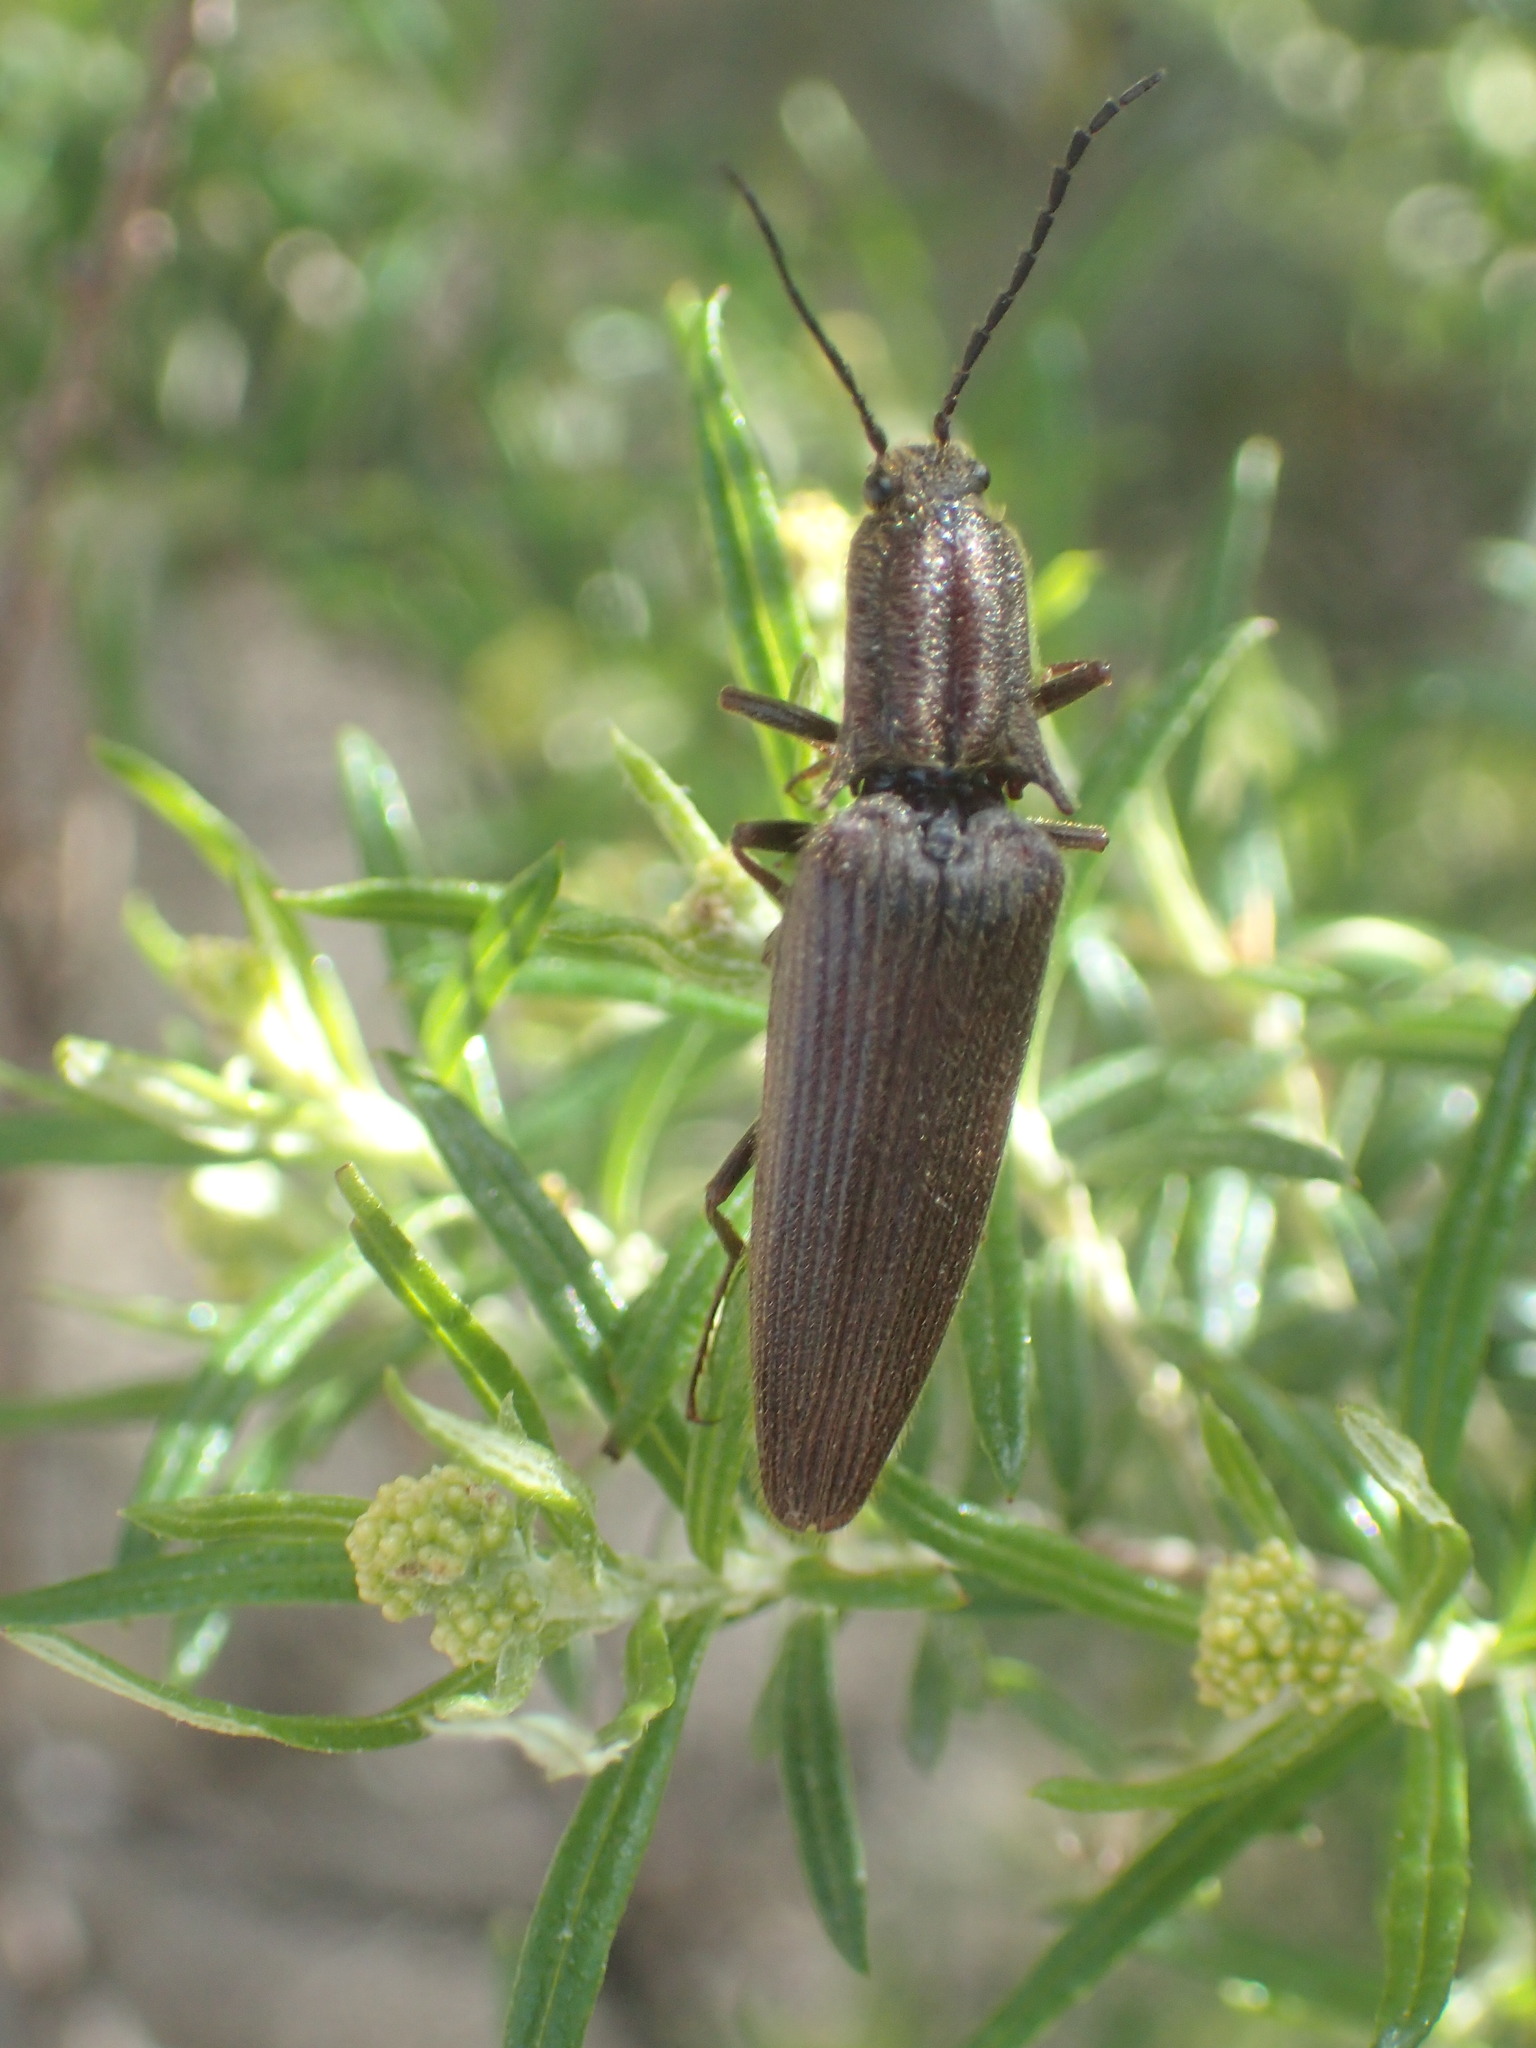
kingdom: Animalia
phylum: Arthropoda
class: Insecta
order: Coleoptera
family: Elateridae
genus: Elatichrosis
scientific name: Elatichrosis
